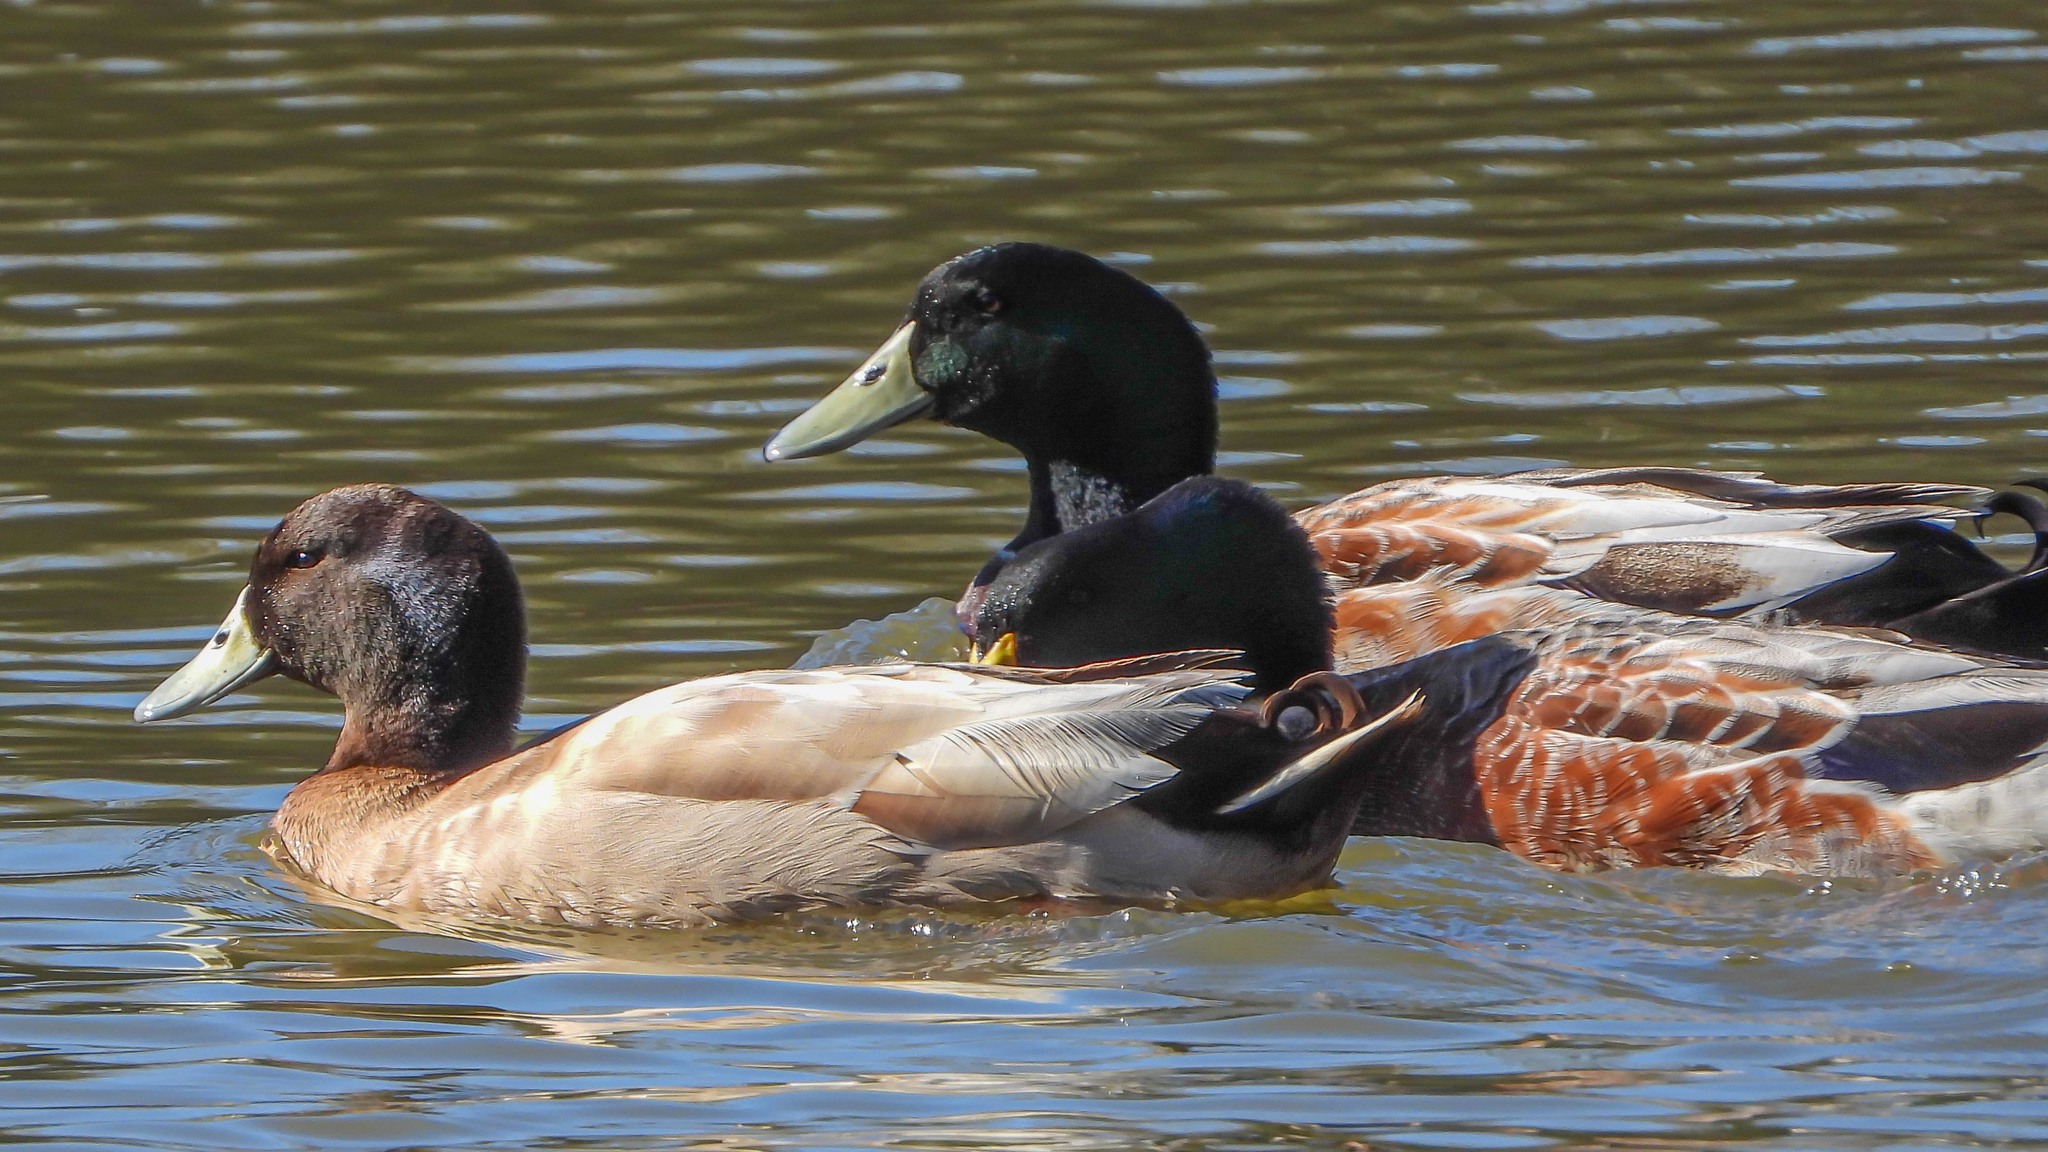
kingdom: Animalia
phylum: Chordata
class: Aves
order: Anseriformes
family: Anatidae
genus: Anas
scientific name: Anas platyrhynchos
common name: Mallard
